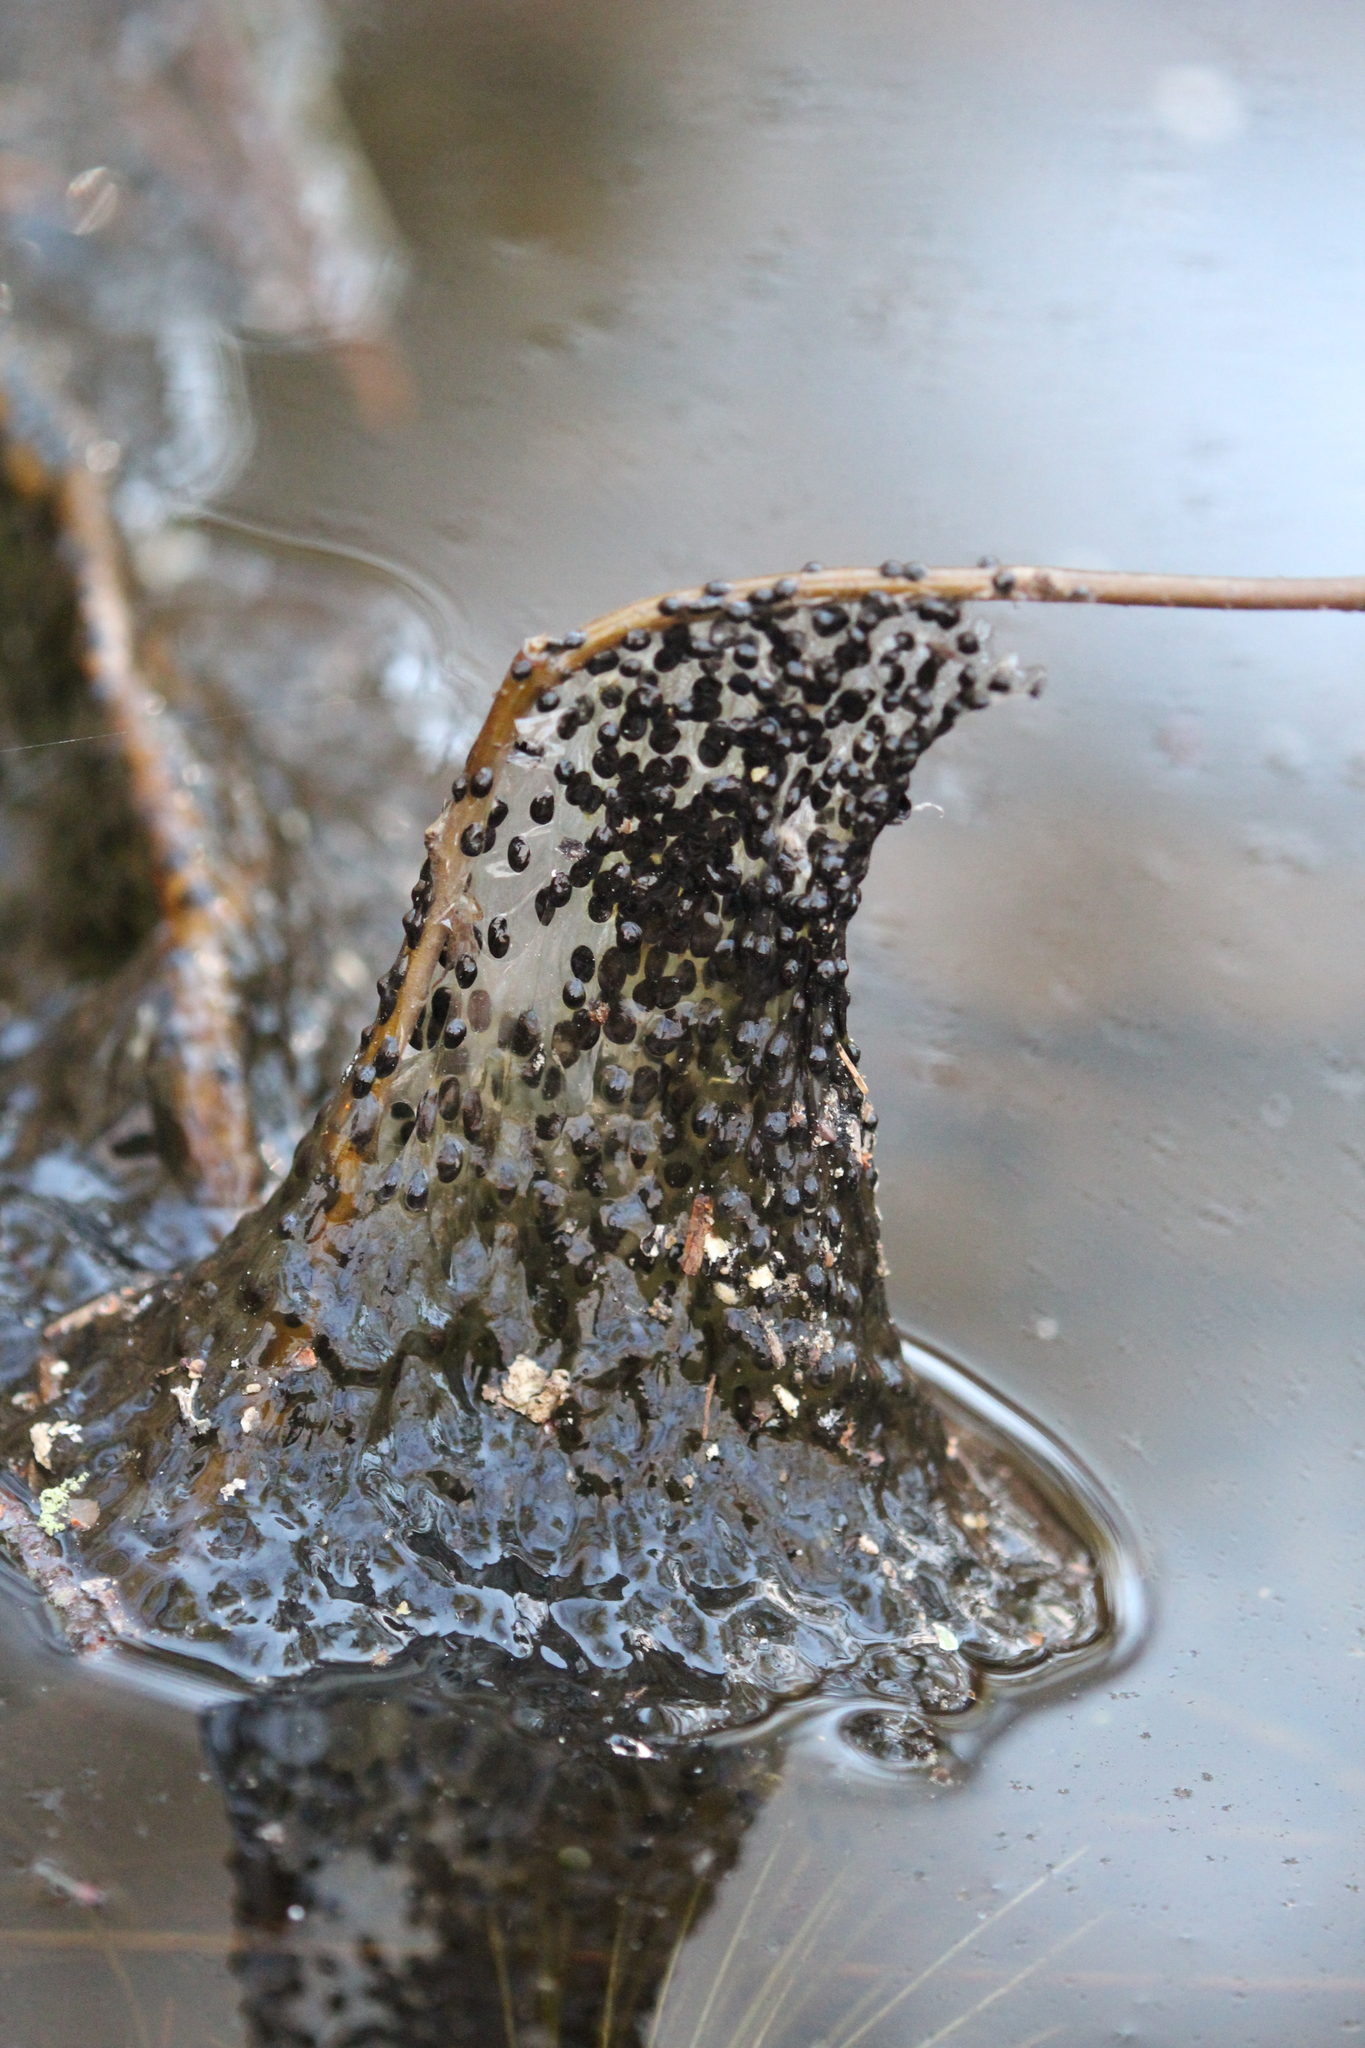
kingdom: Animalia
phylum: Chordata
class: Amphibia
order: Anura
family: Ranidae
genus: Lithobates
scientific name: Lithobates sylvaticus
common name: Wood frog
